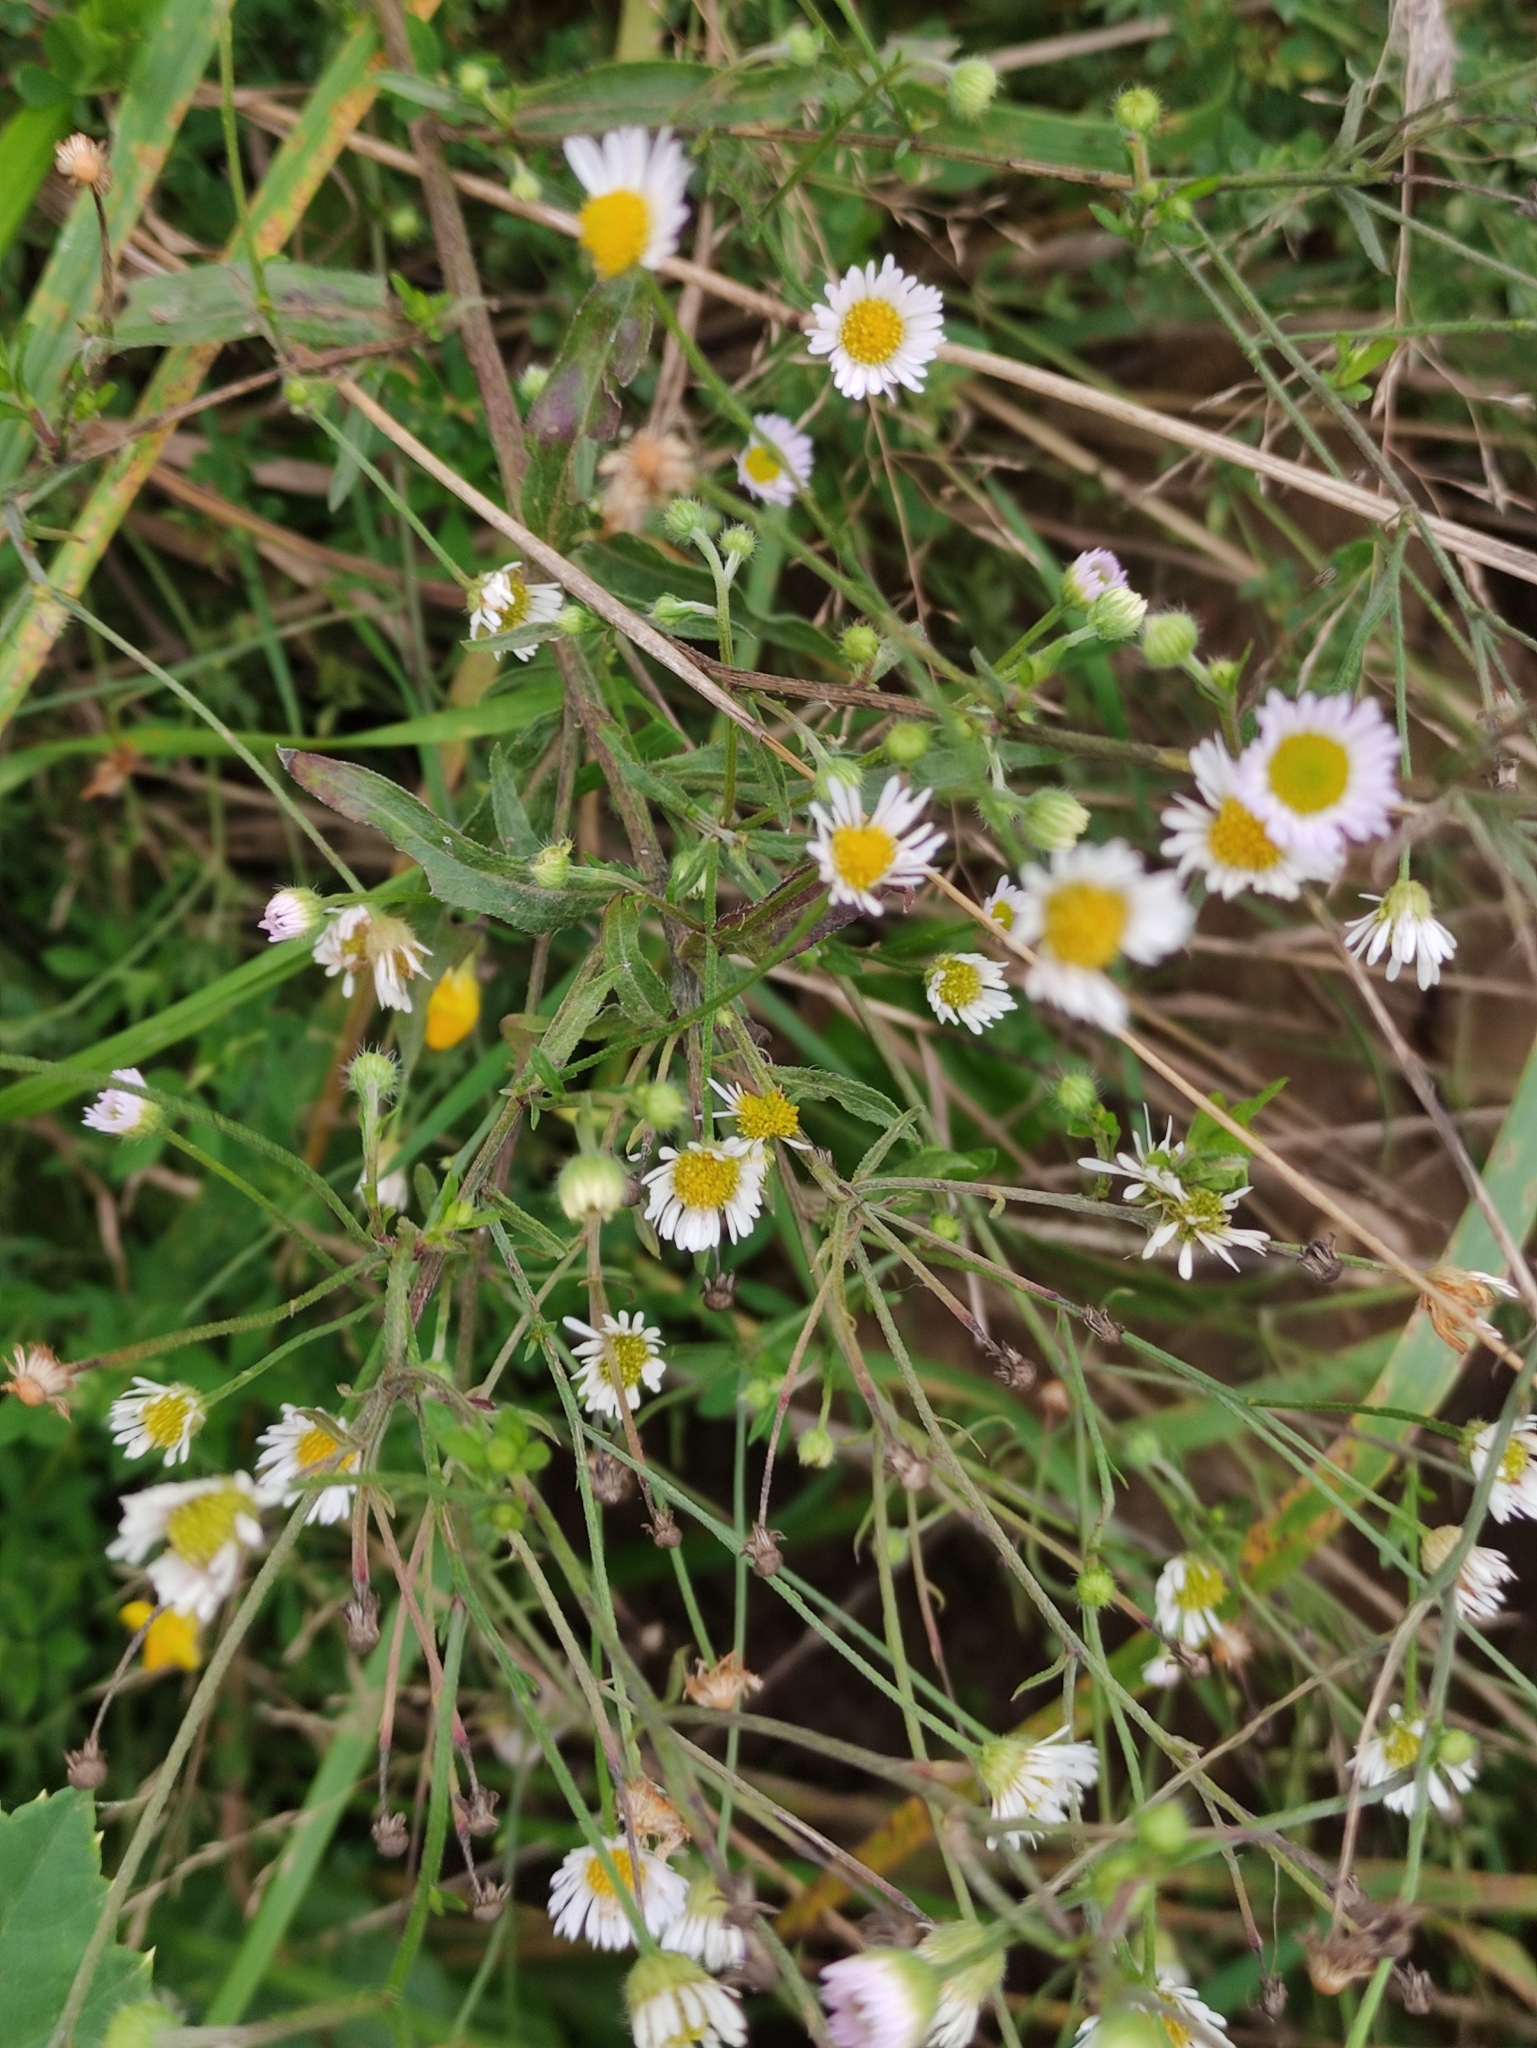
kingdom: Plantae
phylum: Tracheophyta
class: Magnoliopsida
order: Asterales
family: Asteraceae
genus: Erigeron
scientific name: Erigeron annuus
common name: Tall fleabane
